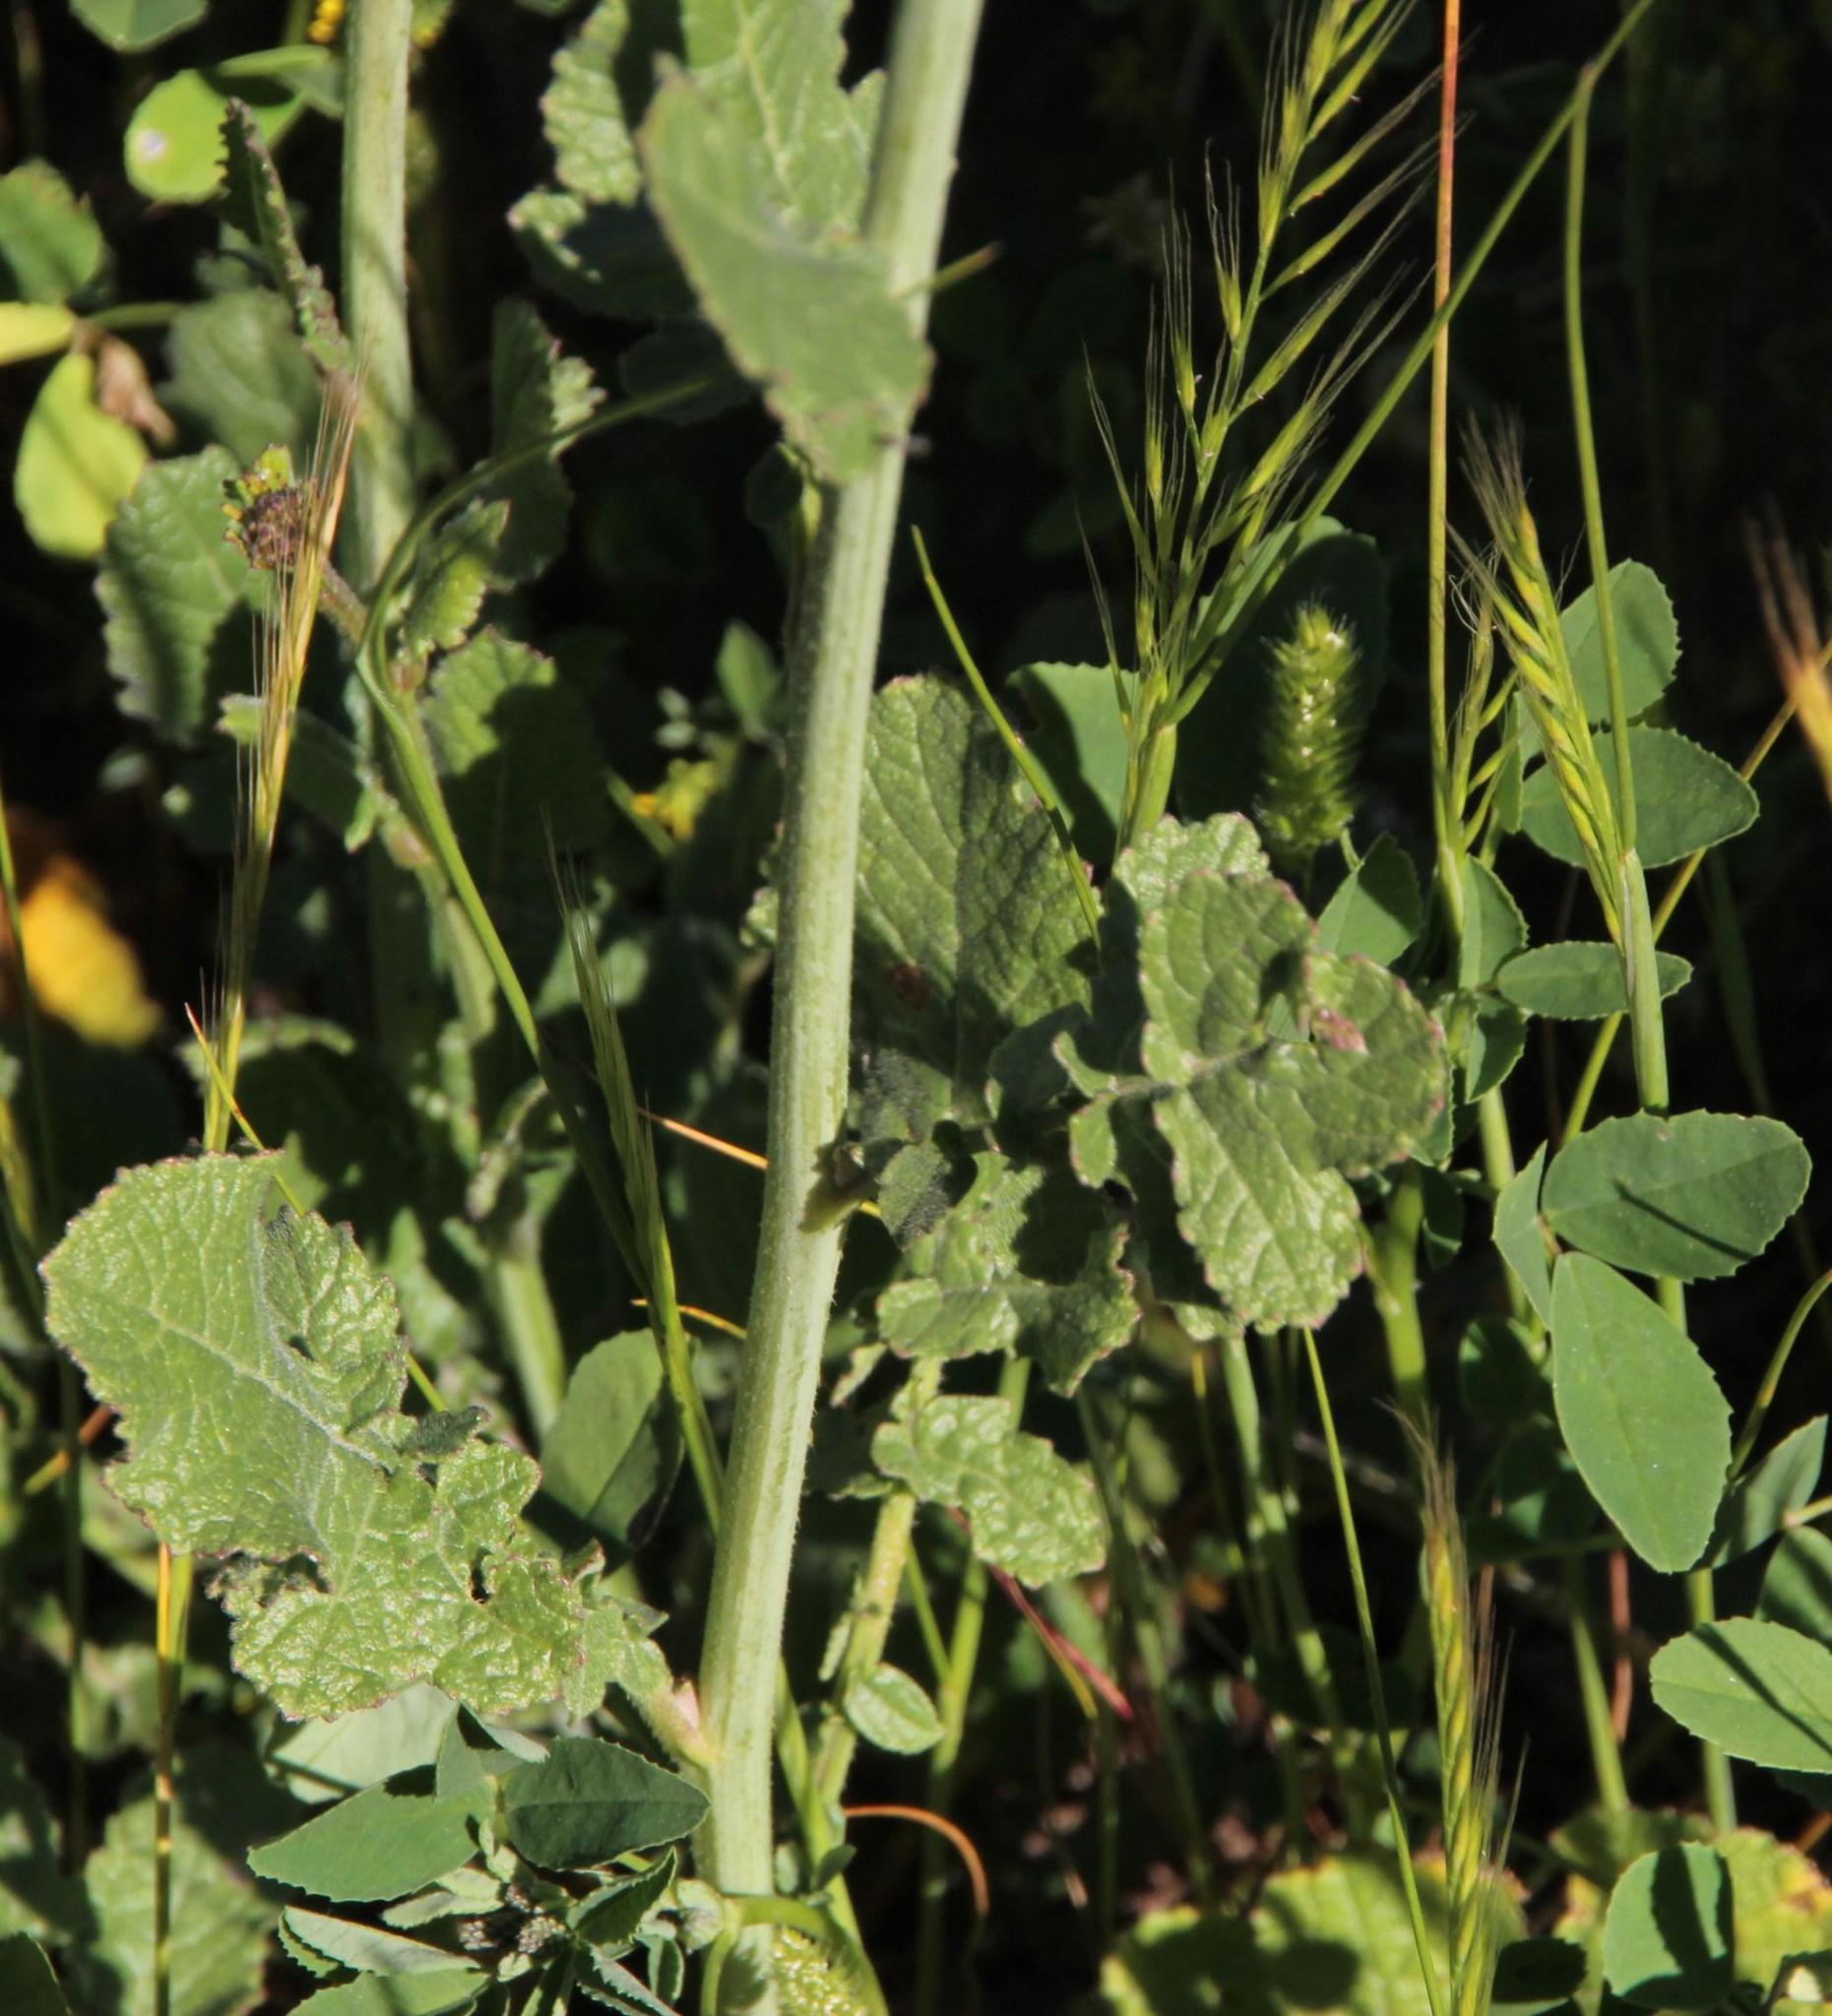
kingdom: Plantae
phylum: Tracheophyta
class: Magnoliopsida
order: Brassicales
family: Brassicaceae
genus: Rapistrum
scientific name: Rapistrum rugosum
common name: Annual bastardcabbage
